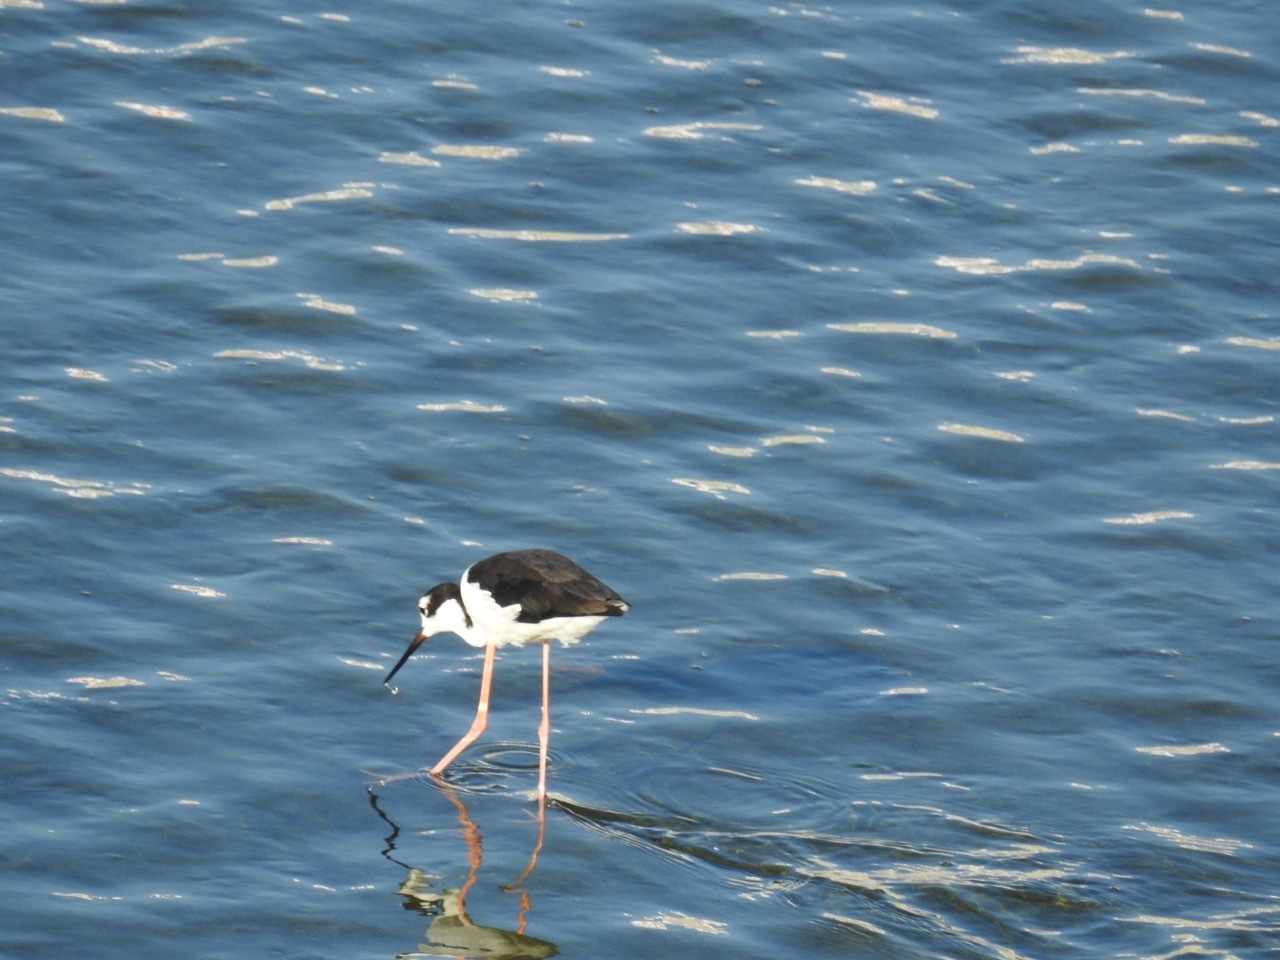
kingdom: Animalia
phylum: Chordata
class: Aves
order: Charadriiformes
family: Recurvirostridae
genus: Himantopus
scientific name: Himantopus mexicanus
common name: Black-necked stilt
